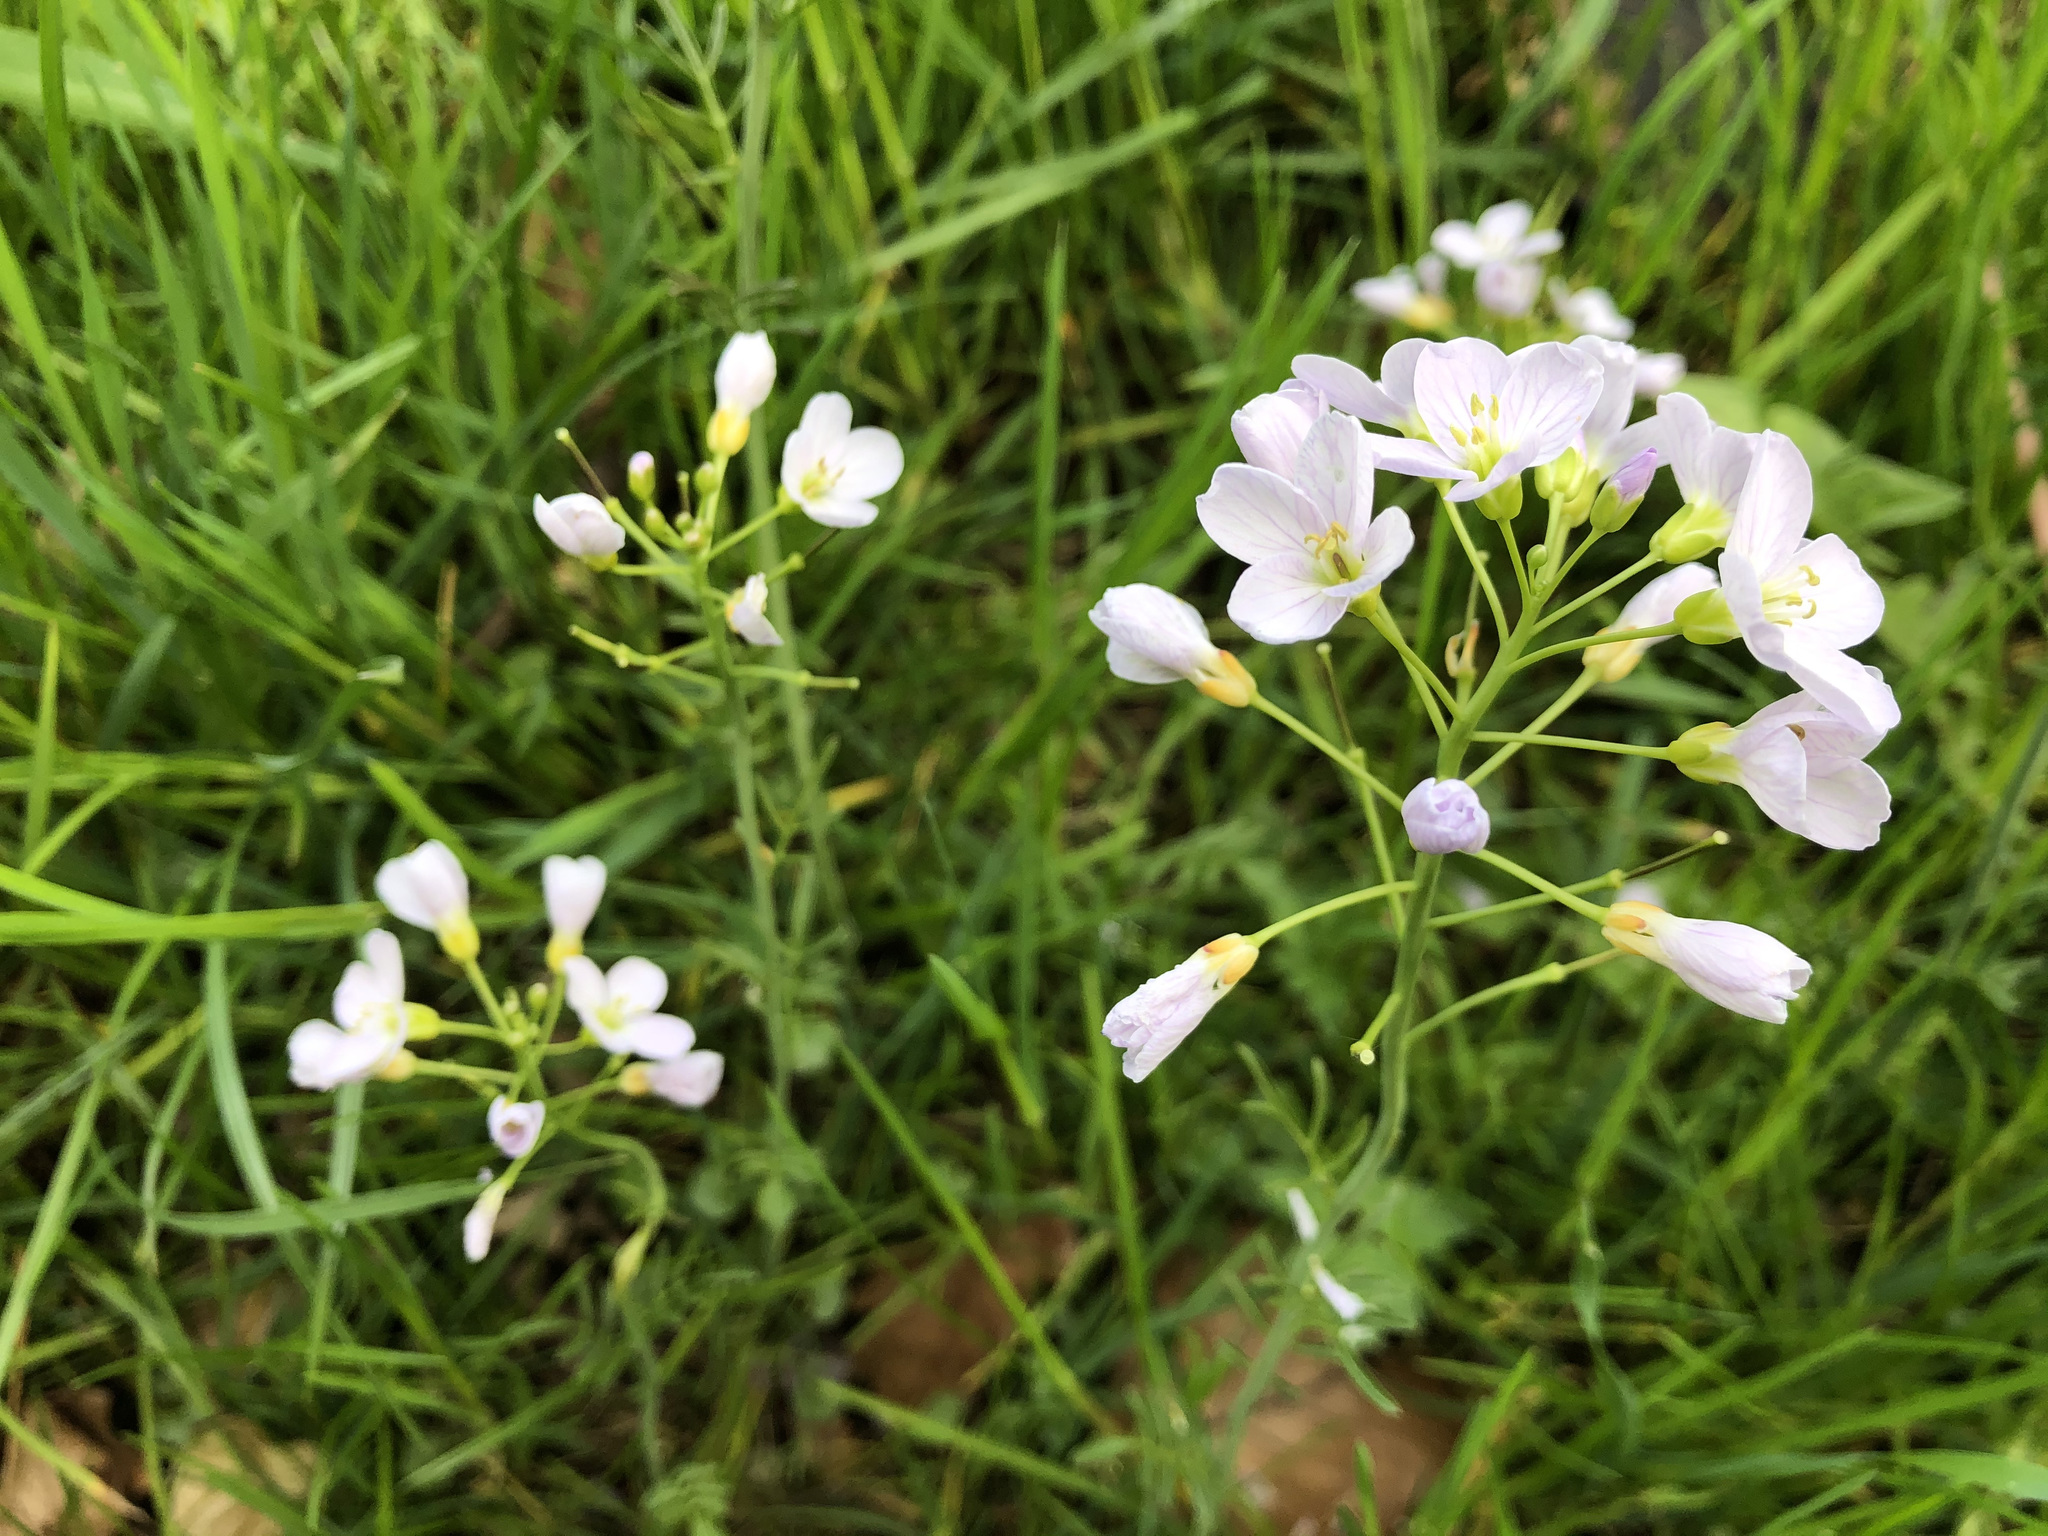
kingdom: Plantae
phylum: Tracheophyta
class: Magnoliopsida
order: Brassicales
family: Brassicaceae
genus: Cardamine
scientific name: Cardamine pratensis
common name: Cuckoo flower
